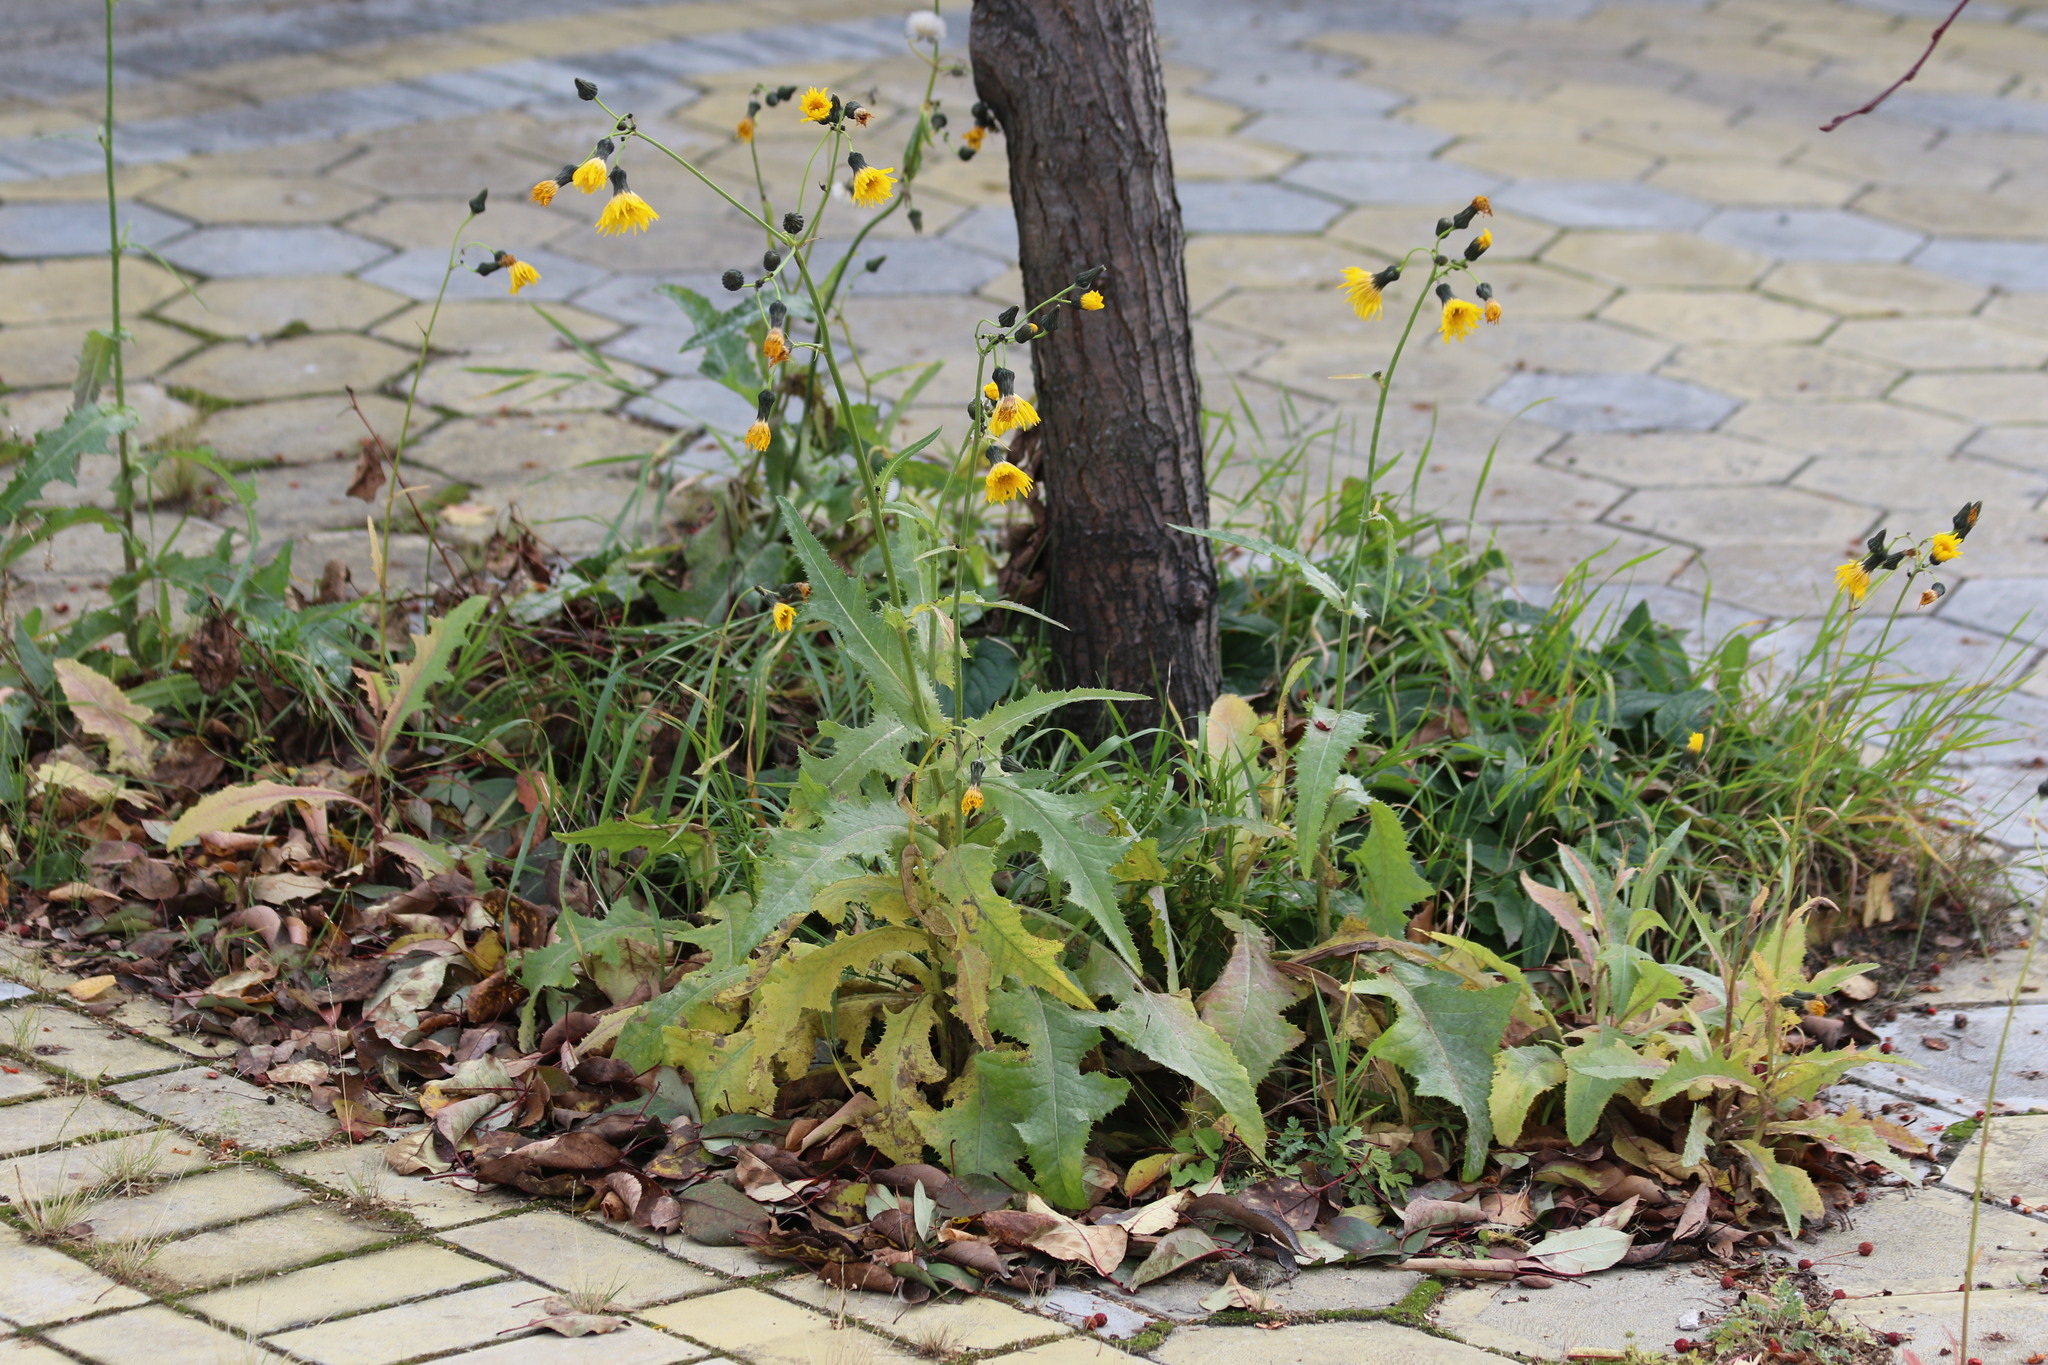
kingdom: Plantae
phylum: Tracheophyta
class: Magnoliopsida
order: Asterales
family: Asteraceae
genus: Sonchus
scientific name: Sonchus arvensis
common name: Perennial sow-thistle
